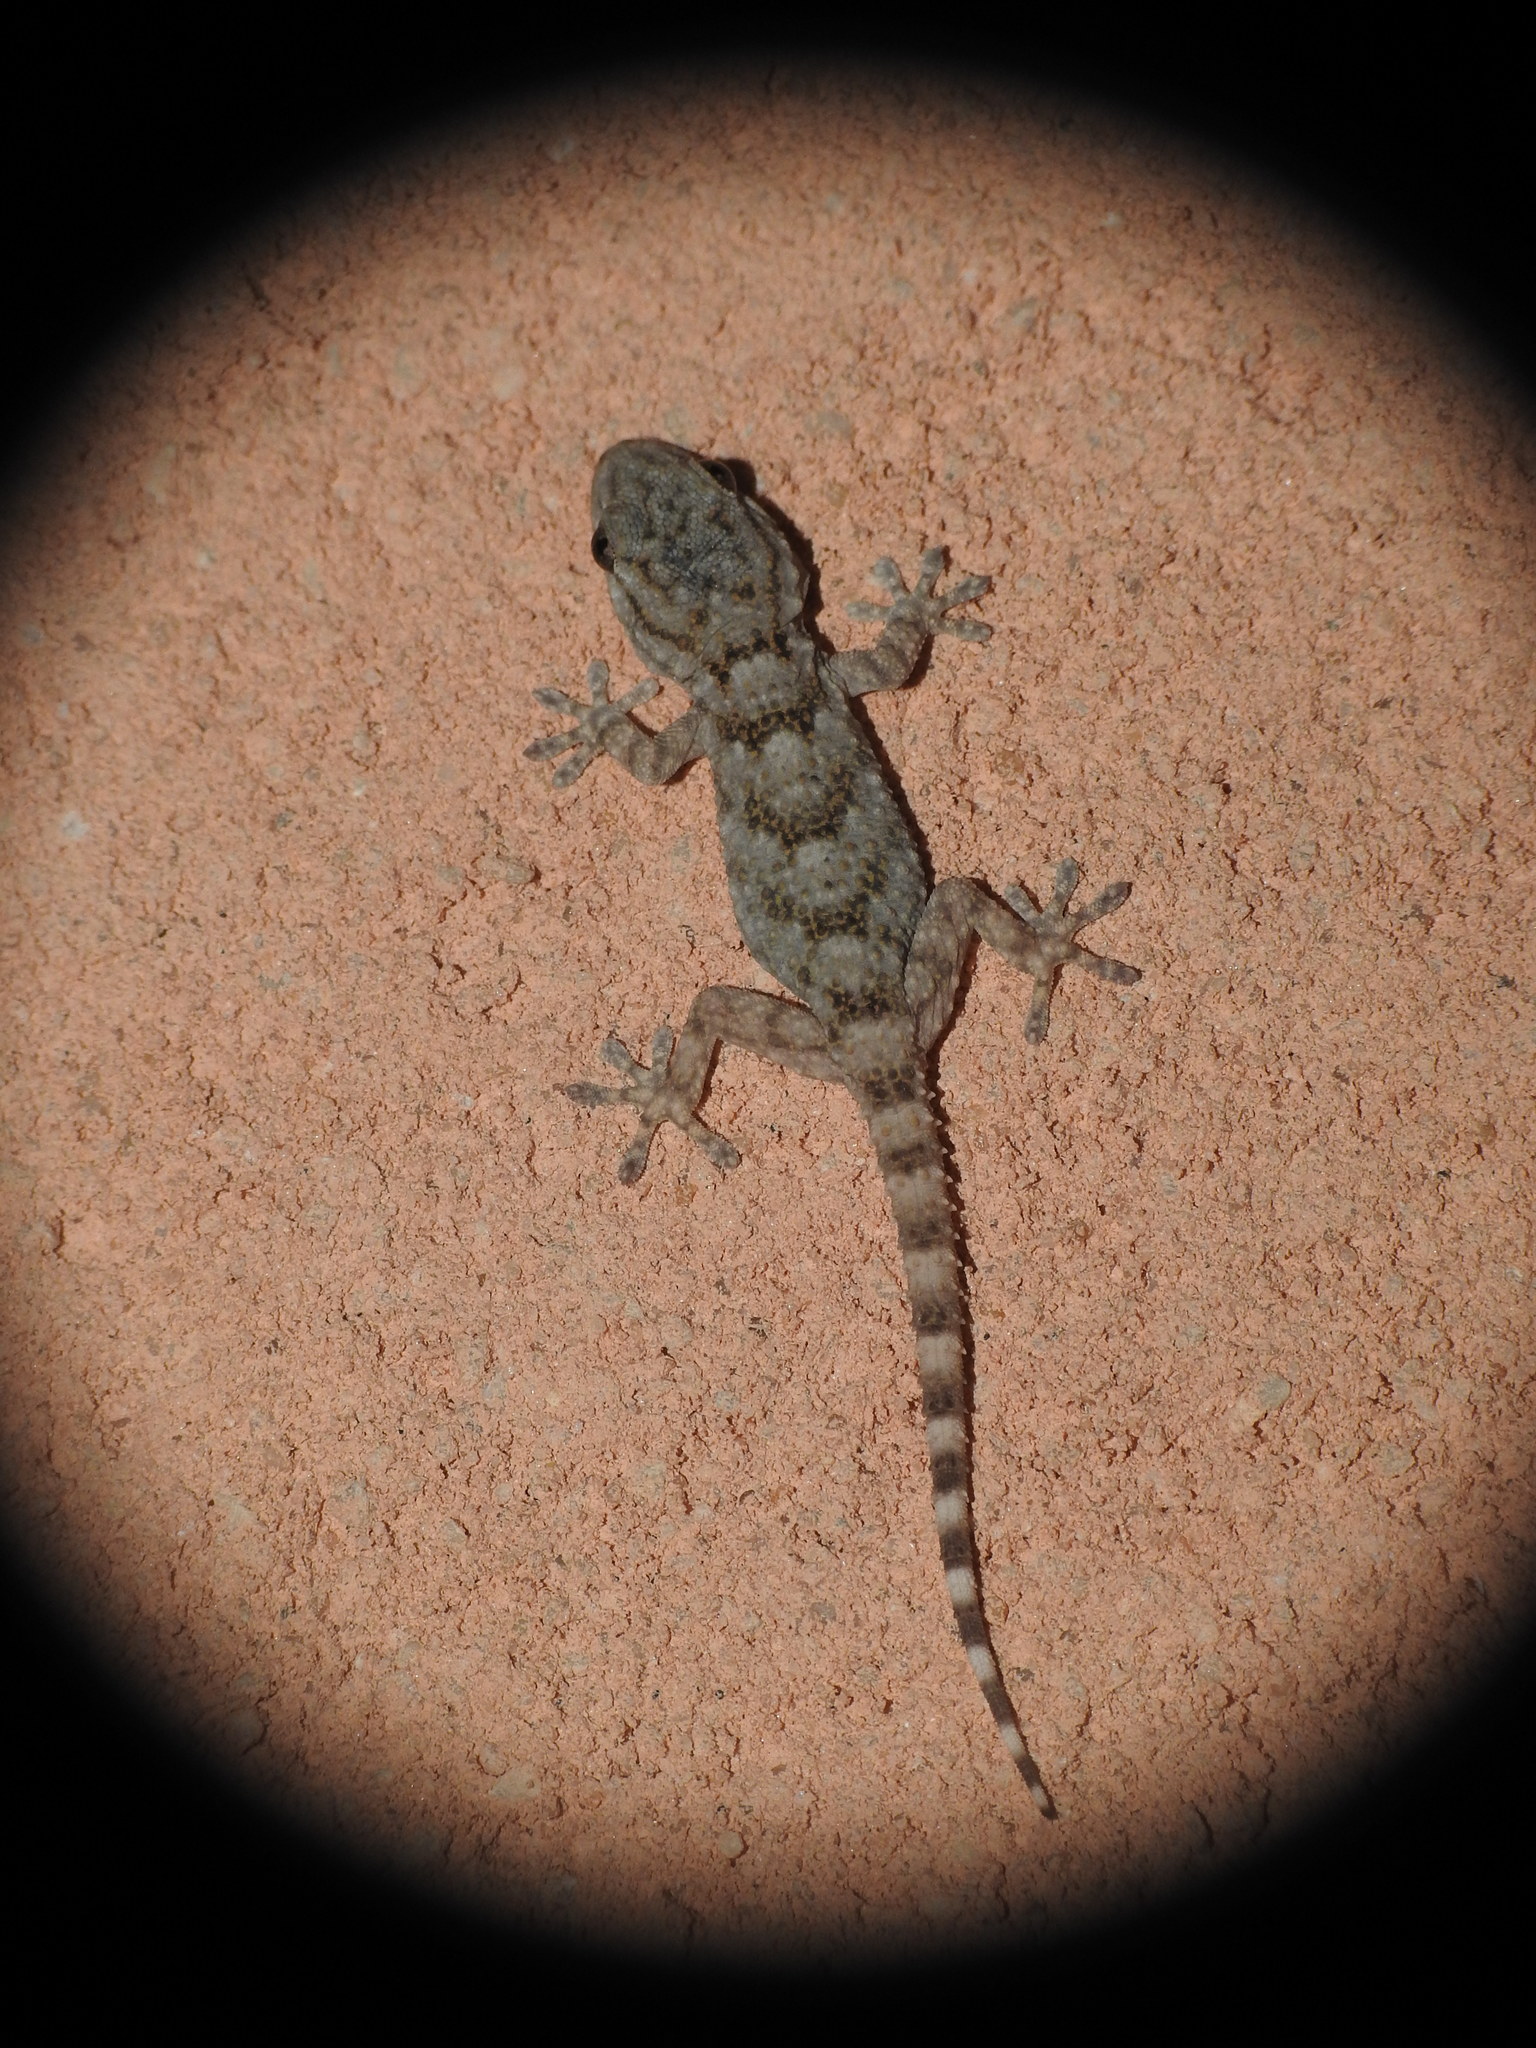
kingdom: Animalia
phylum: Chordata
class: Squamata
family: Phyllodactylidae
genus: Tarentola
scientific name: Tarentola mauritanica
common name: Moorish gecko
